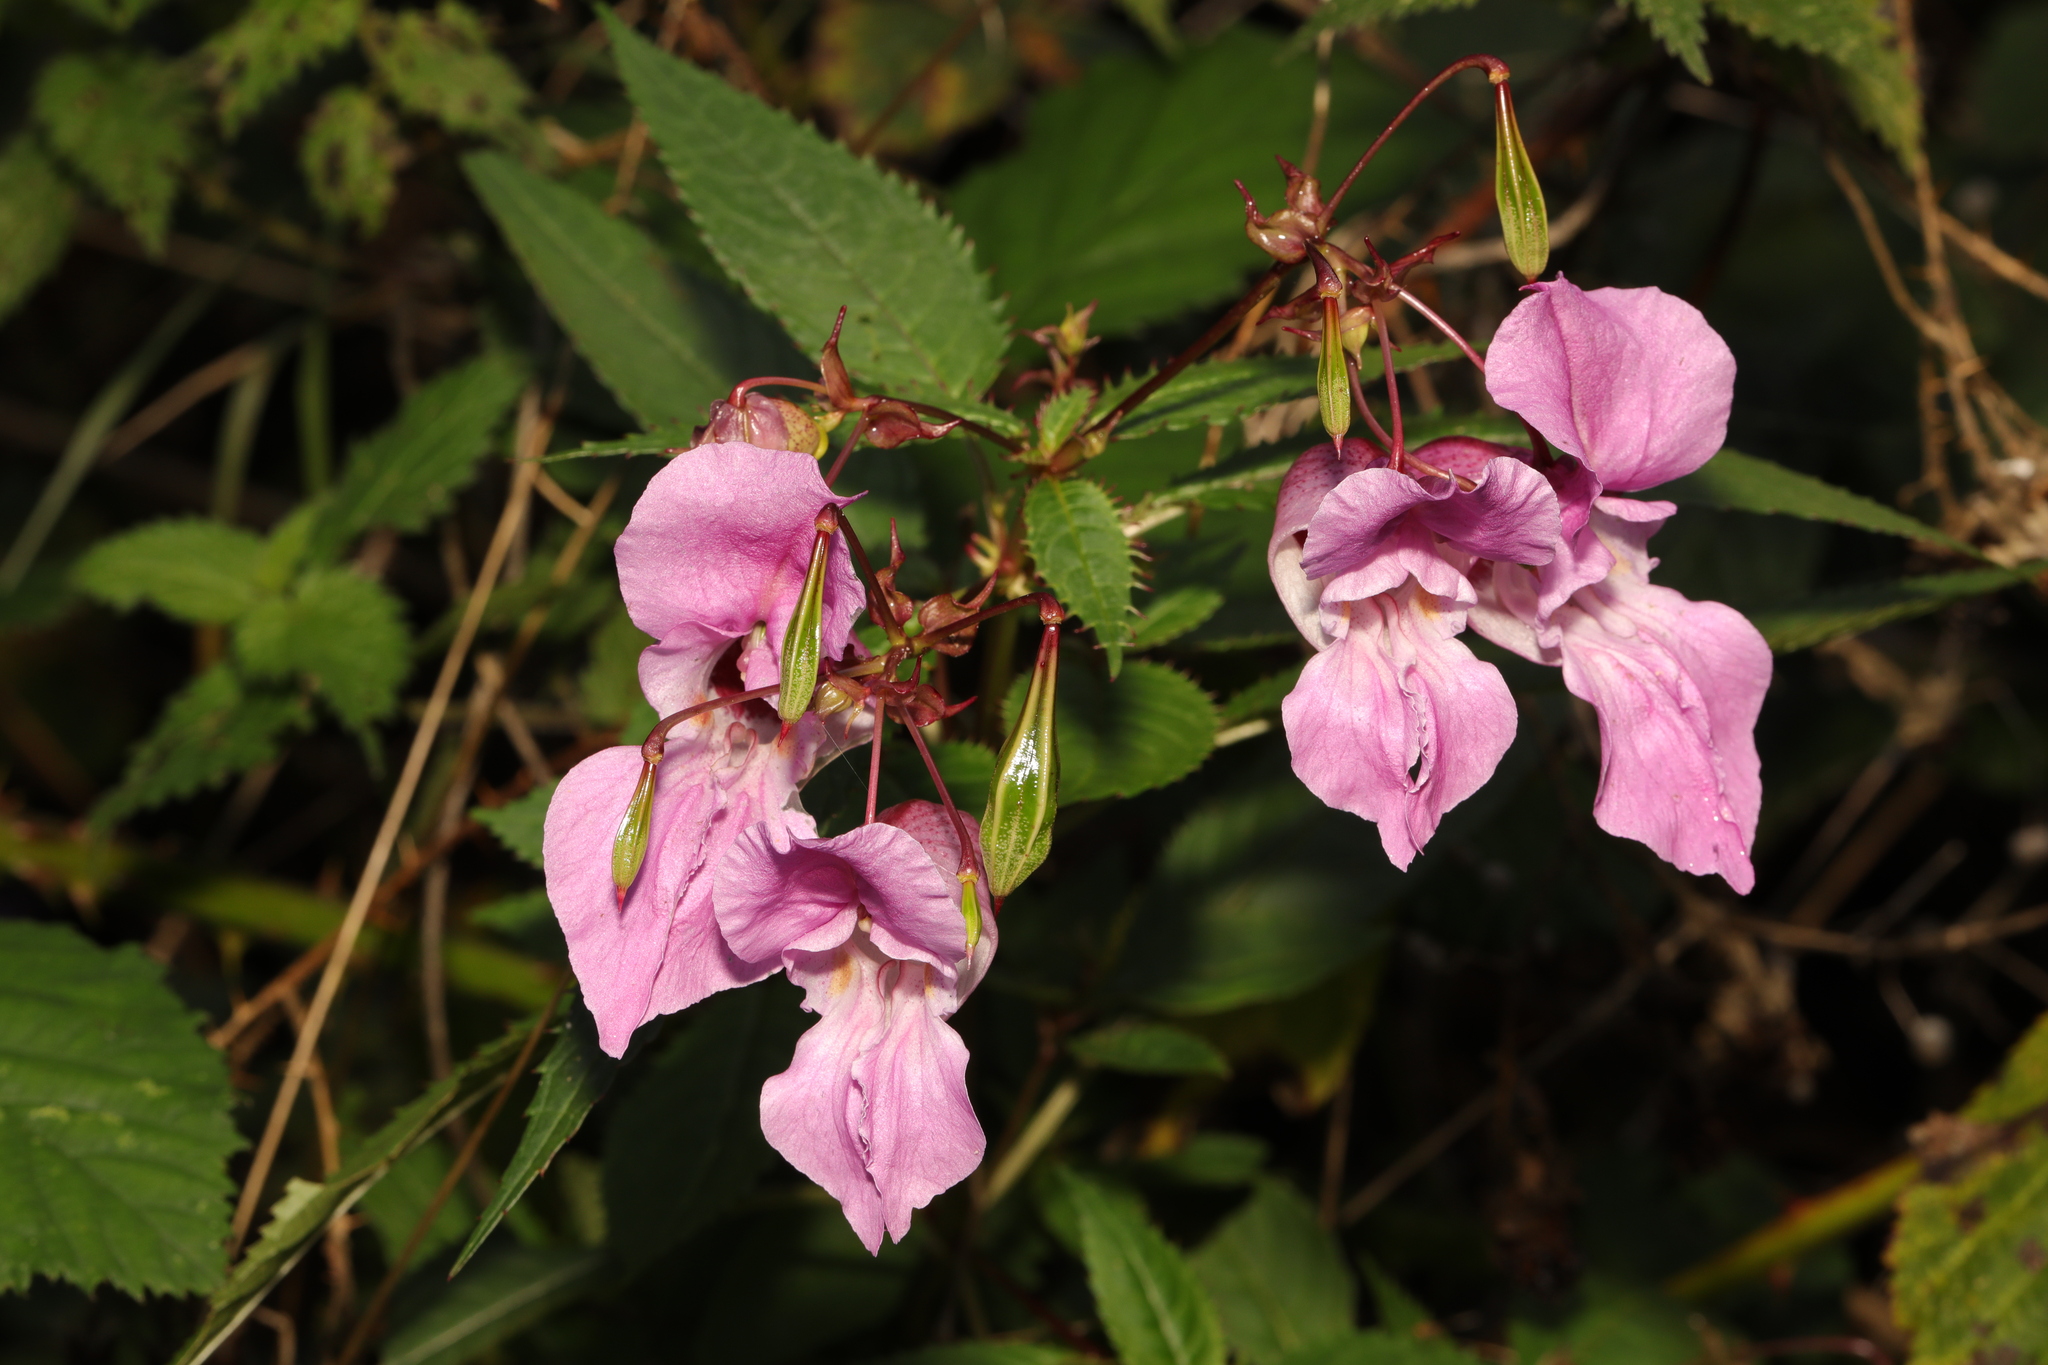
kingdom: Plantae
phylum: Tracheophyta
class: Magnoliopsida
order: Ericales
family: Balsaminaceae
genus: Impatiens
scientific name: Impatiens glandulifera
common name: Himalayan balsam
